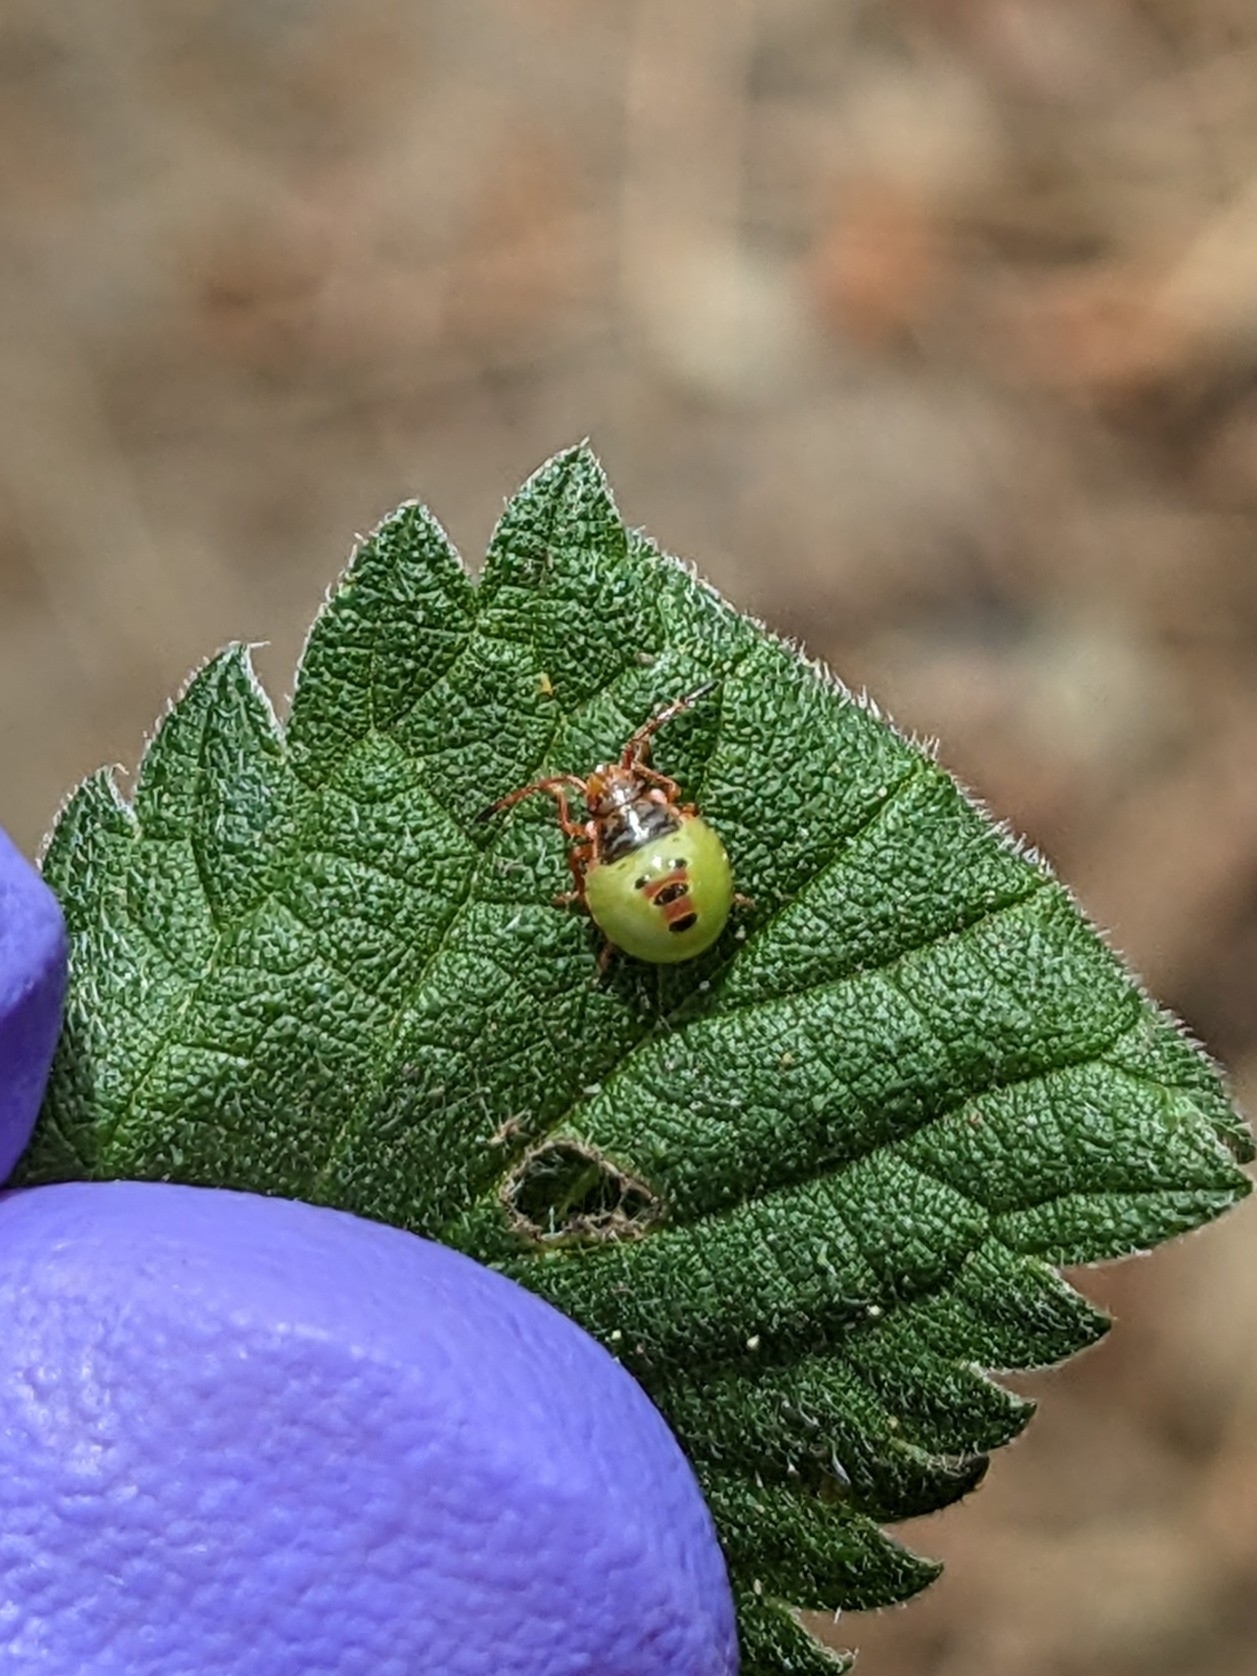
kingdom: Animalia
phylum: Arthropoda
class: Insecta
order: Hemiptera
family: Acanthosomatidae
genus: Elasmostethus
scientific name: Elasmostethus interstinctus
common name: Birch shieldbug
